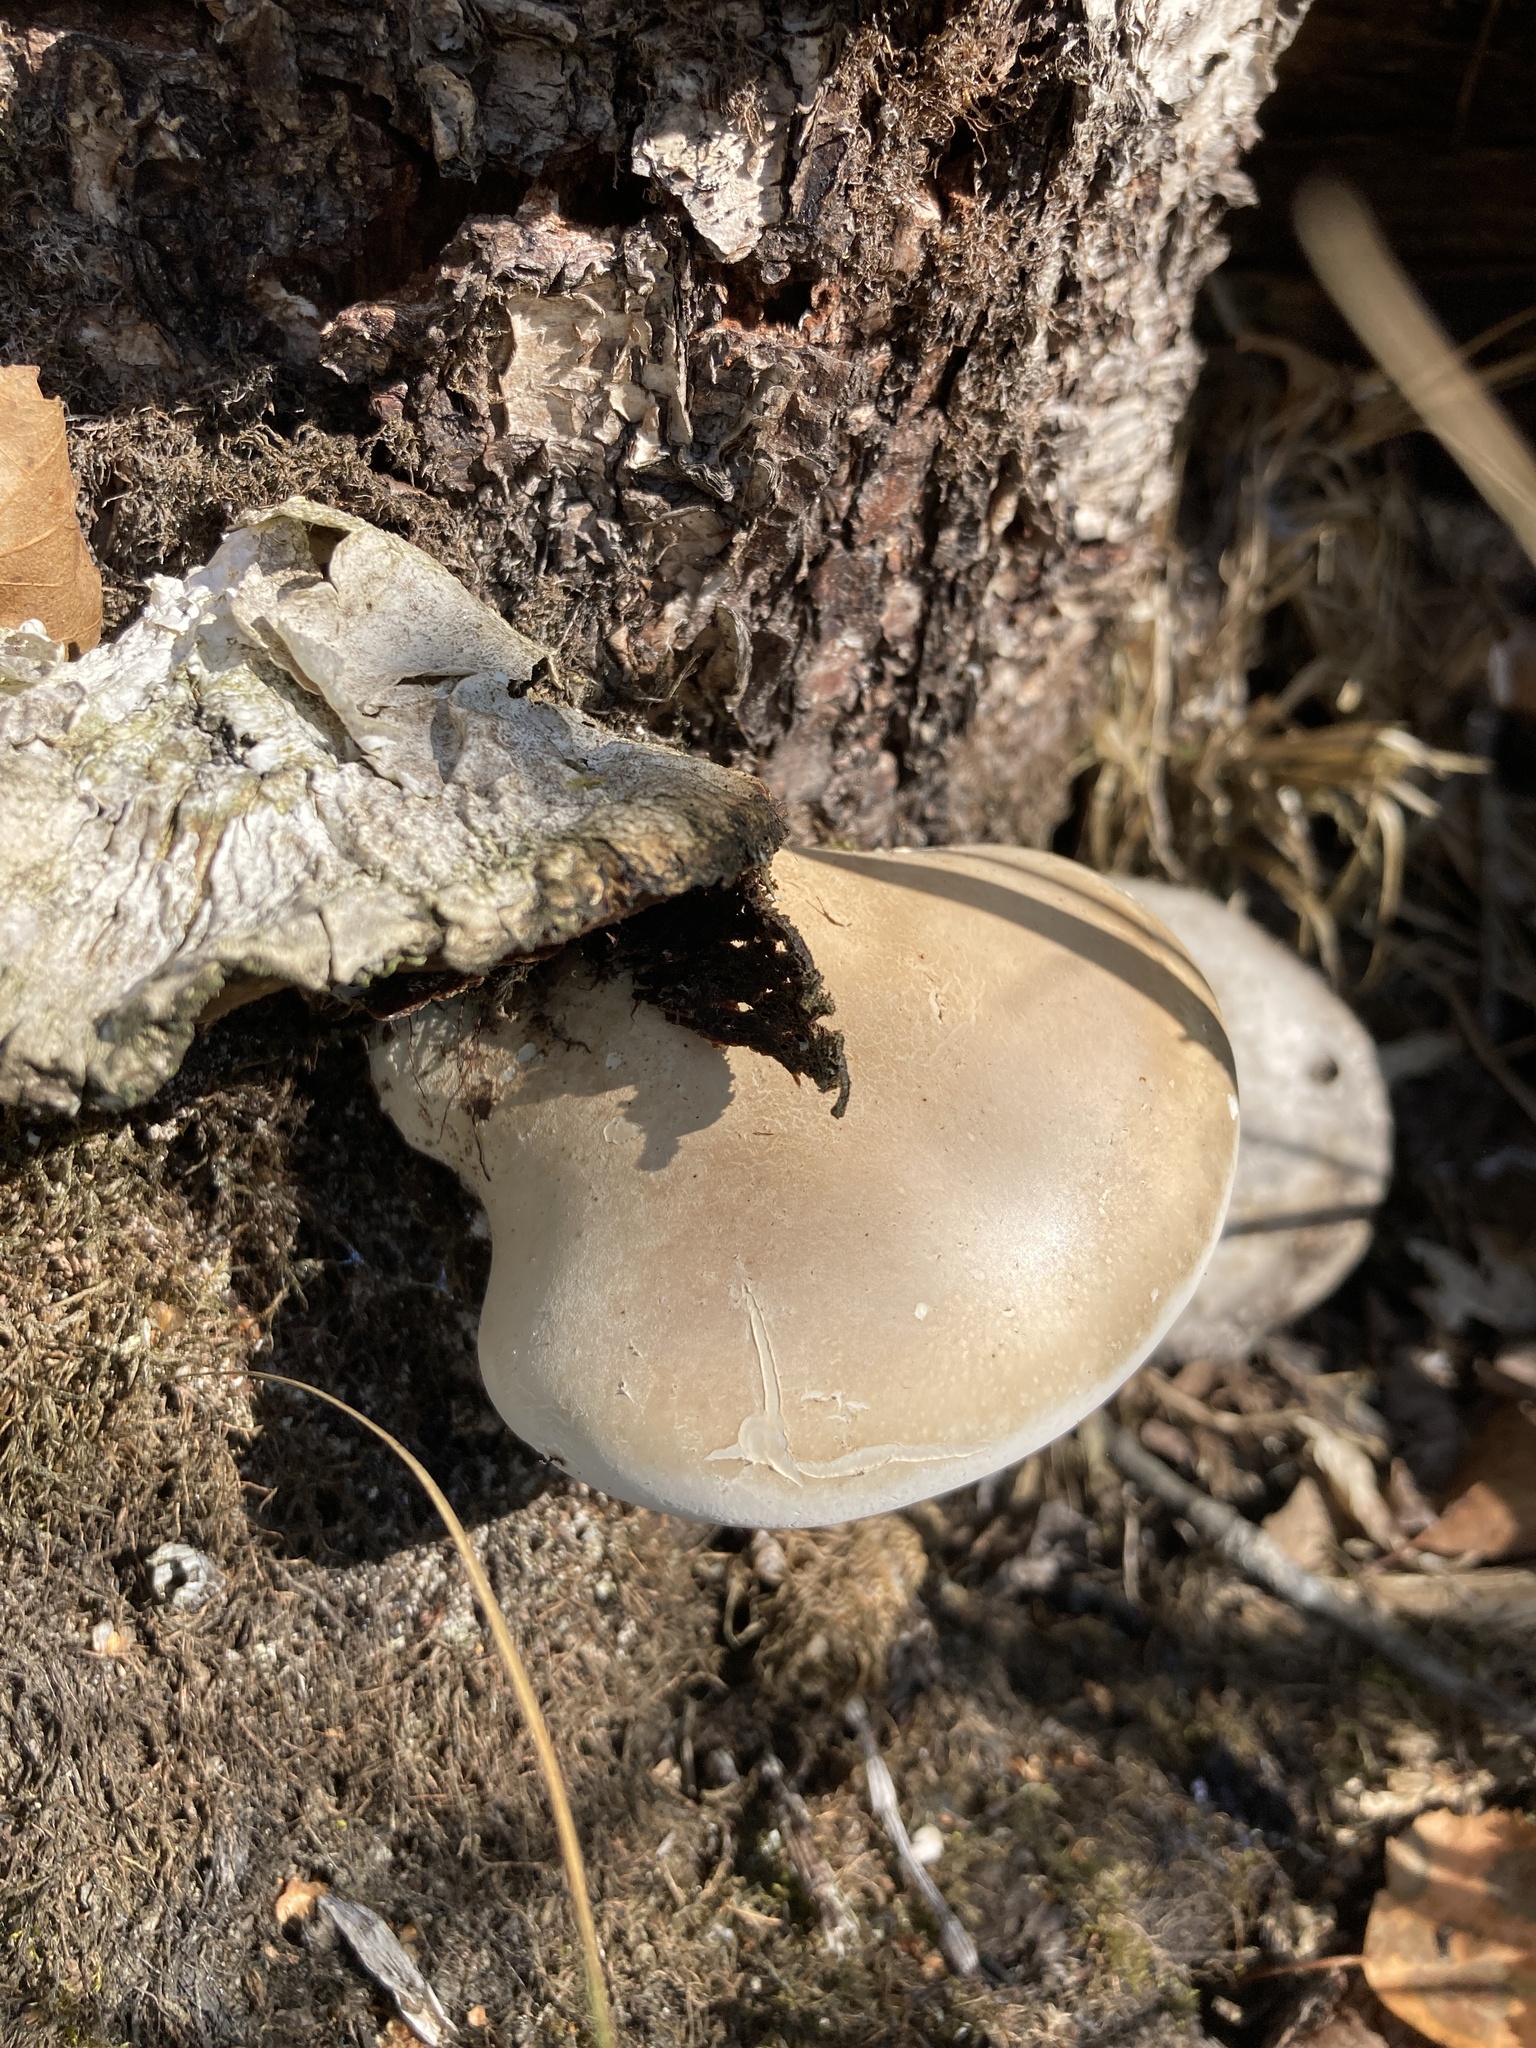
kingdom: Fungi
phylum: Basidiomycota
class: Agaricomycetes
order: Polyporales
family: Fomitopsidaceae
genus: Fomitopsis
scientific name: Fomitopsis betulina
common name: Birch polypore
